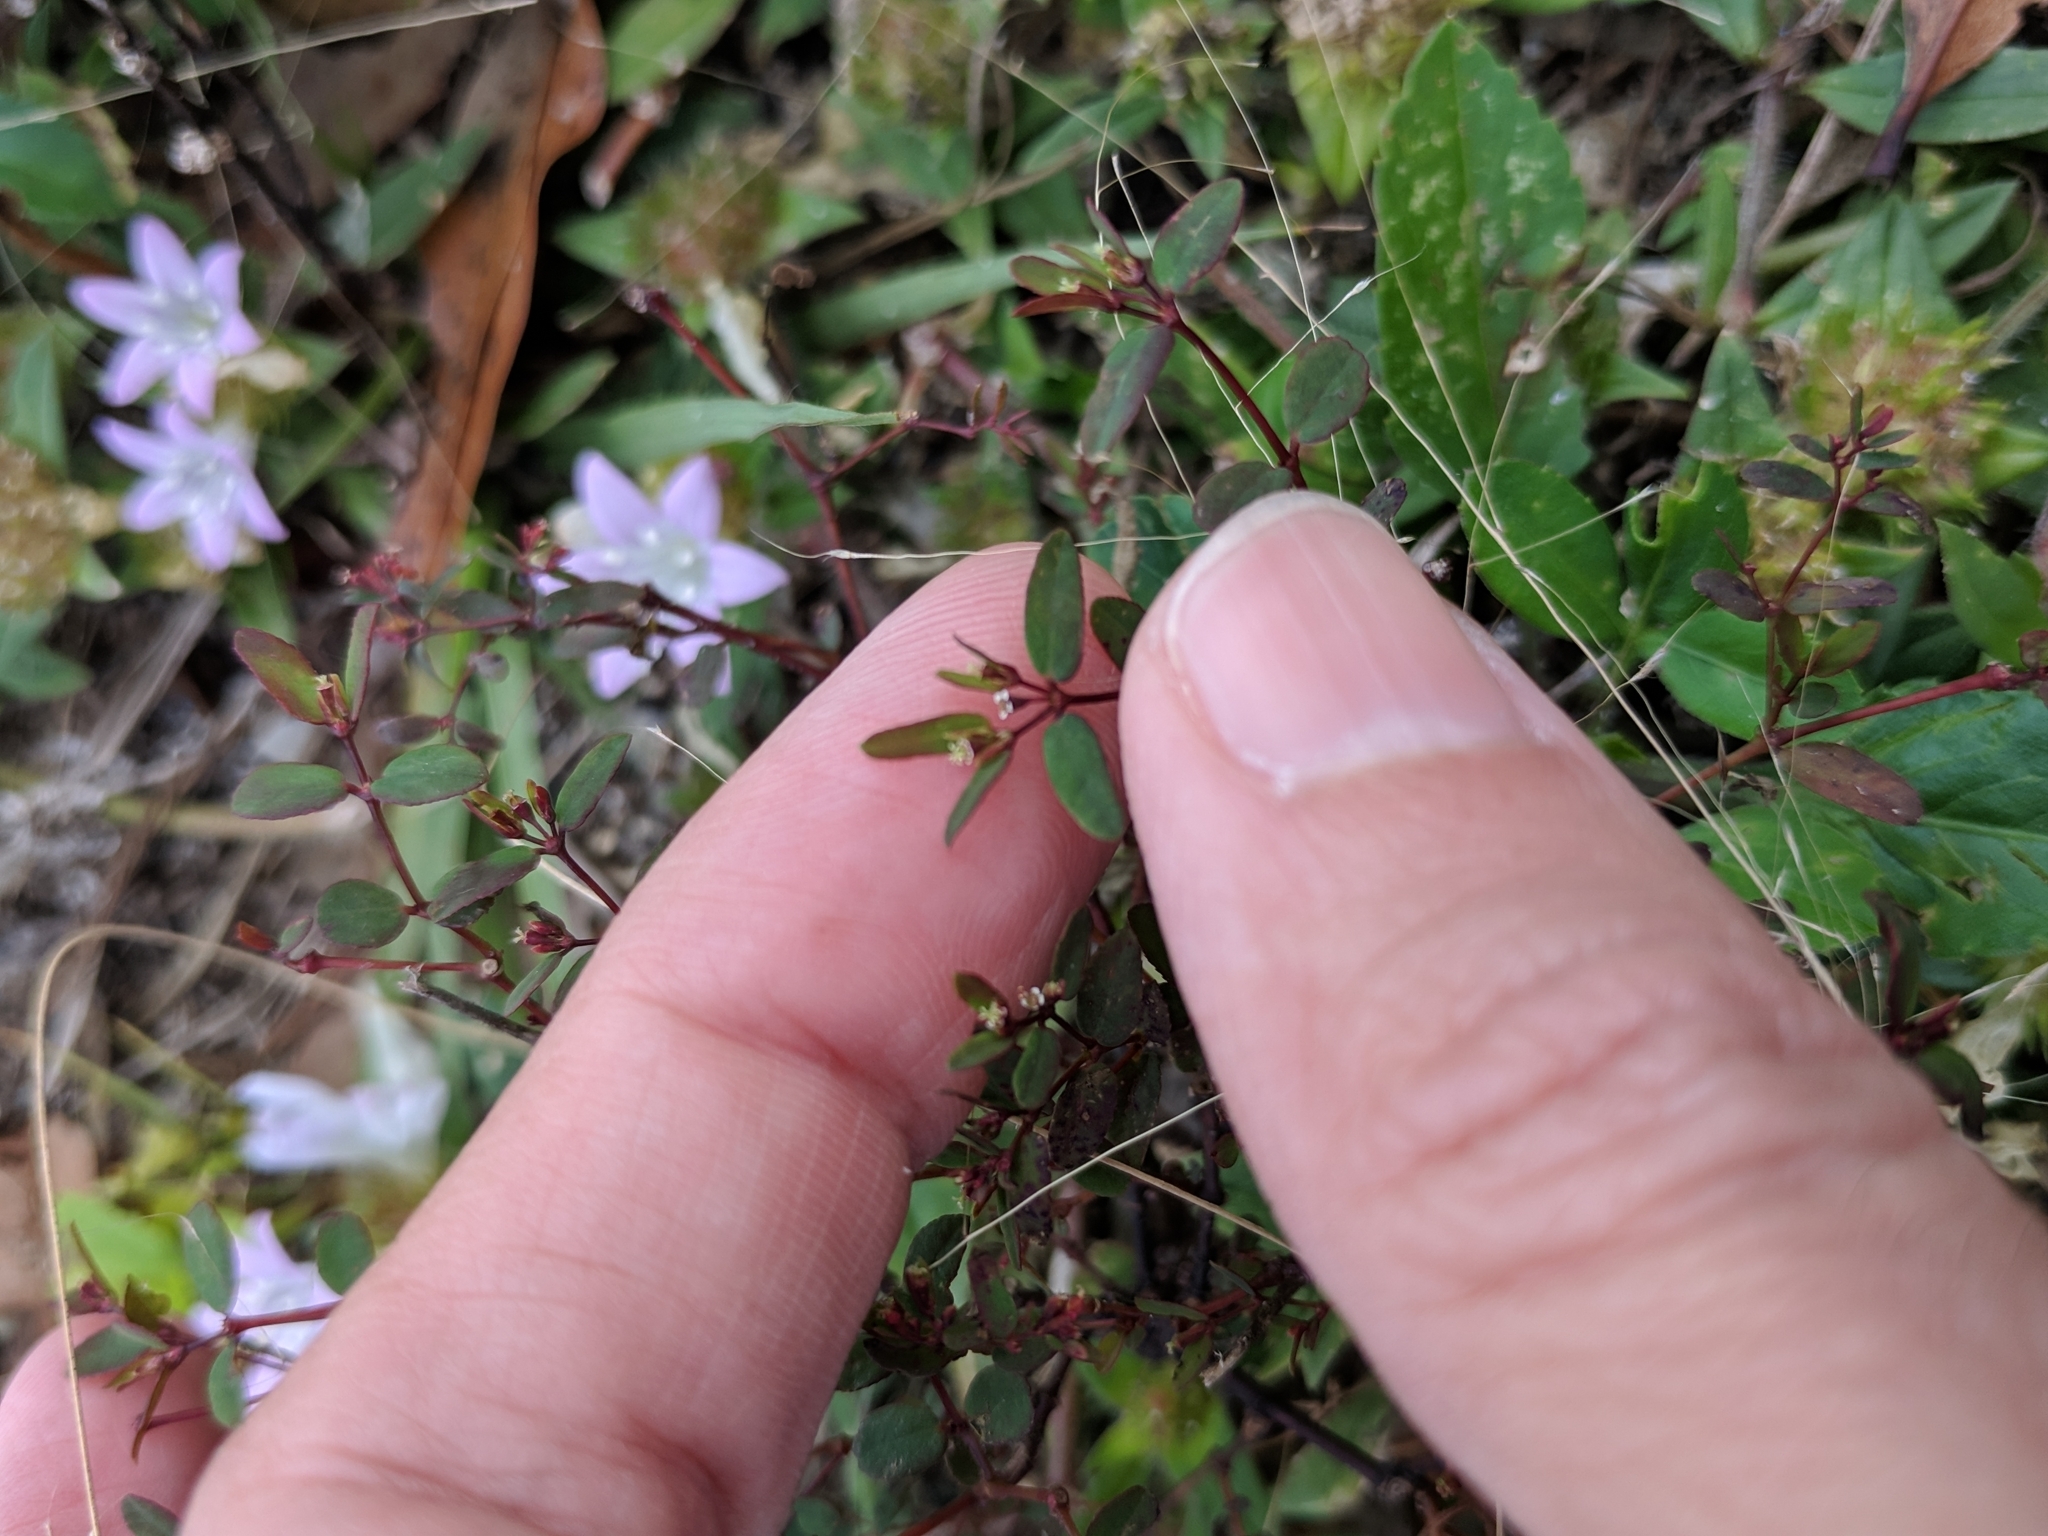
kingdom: Plantae
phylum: Tracheophyta
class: Magnoliopsida
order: Malpighiales
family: Euphorbiaceae
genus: Euphorbia
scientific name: Euphorbia hyssopifolia
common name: Hyssopleaf sandmat
